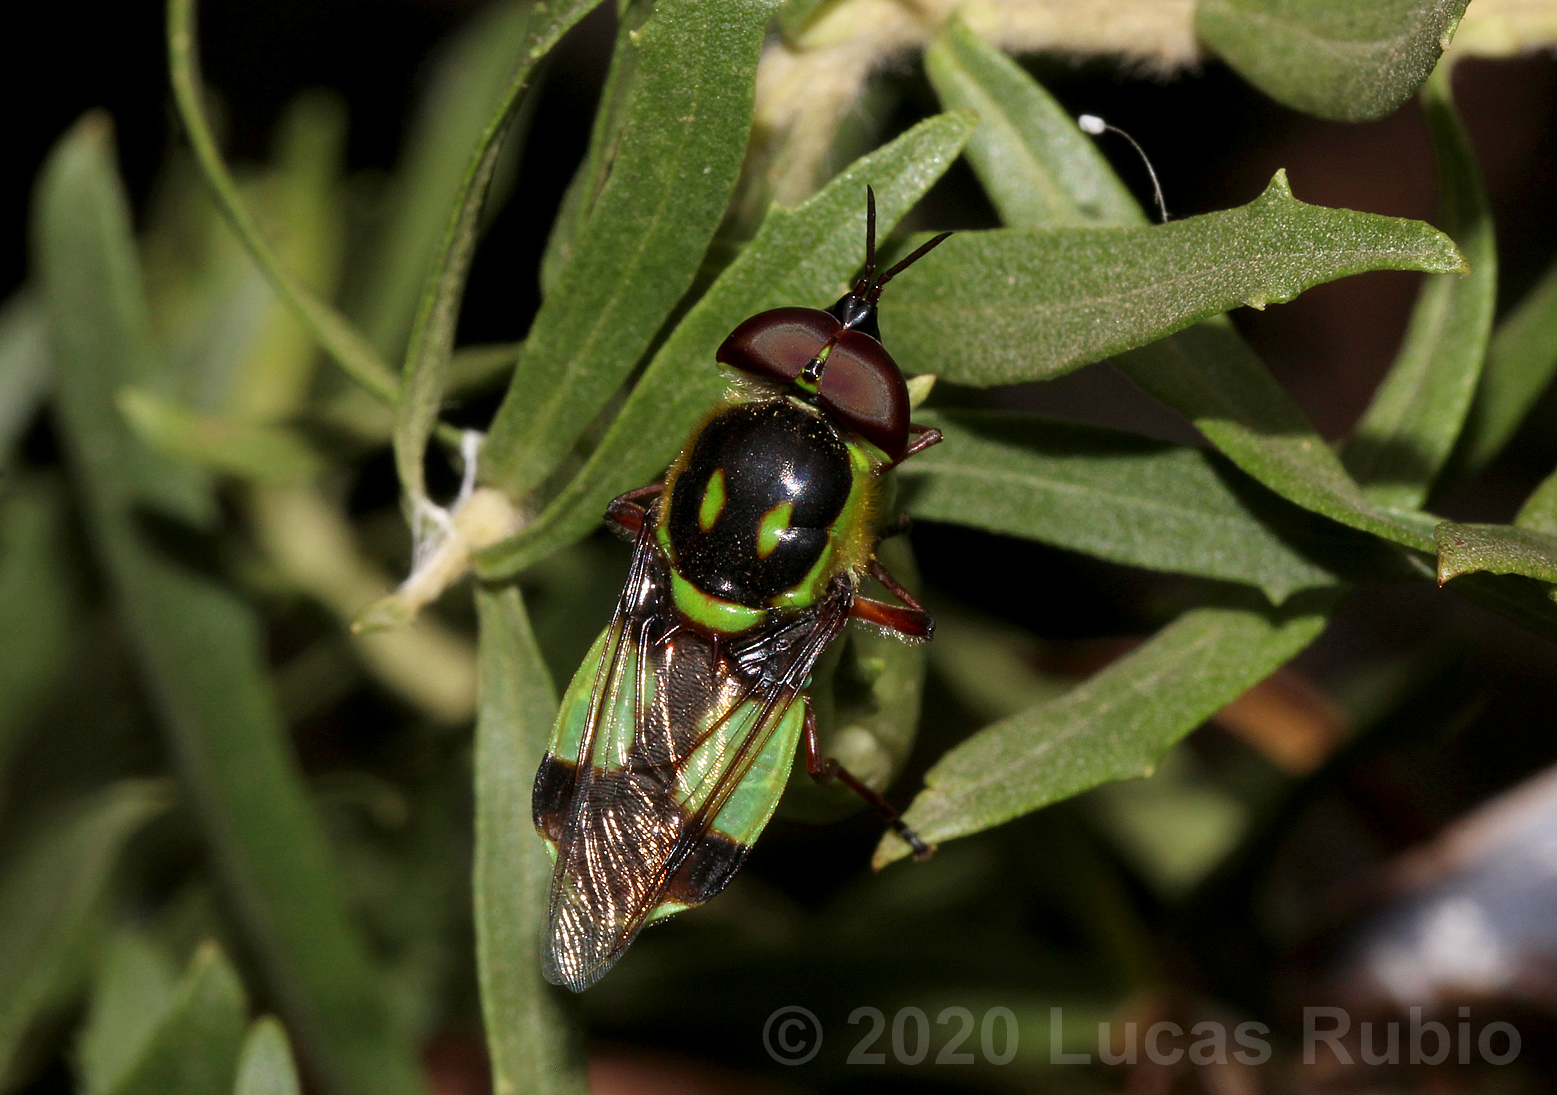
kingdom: Animalia
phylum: Arthropoda
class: Insecta
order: Diptera
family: Stratiomyidae
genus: Hedriodiscus
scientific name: Hedriodiscus pulcher
